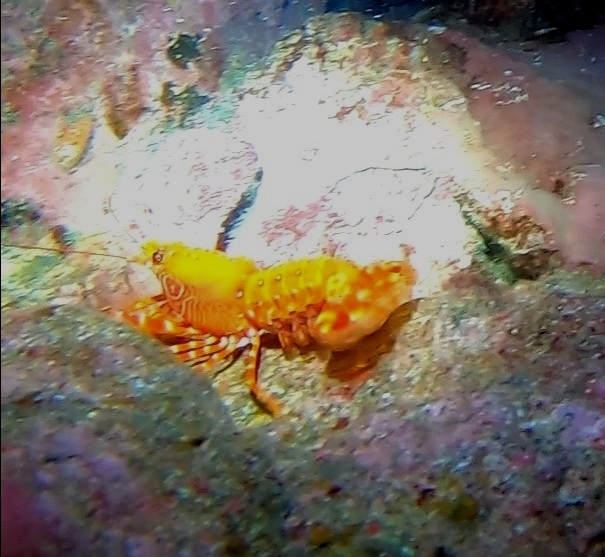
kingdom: Animalia
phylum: Arthropoda
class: Malacostraca
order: Decapoda
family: Enoplometopidae
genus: Enoplometopus
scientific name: Enoplometopus antillensis
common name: Dwarf reef lobster
